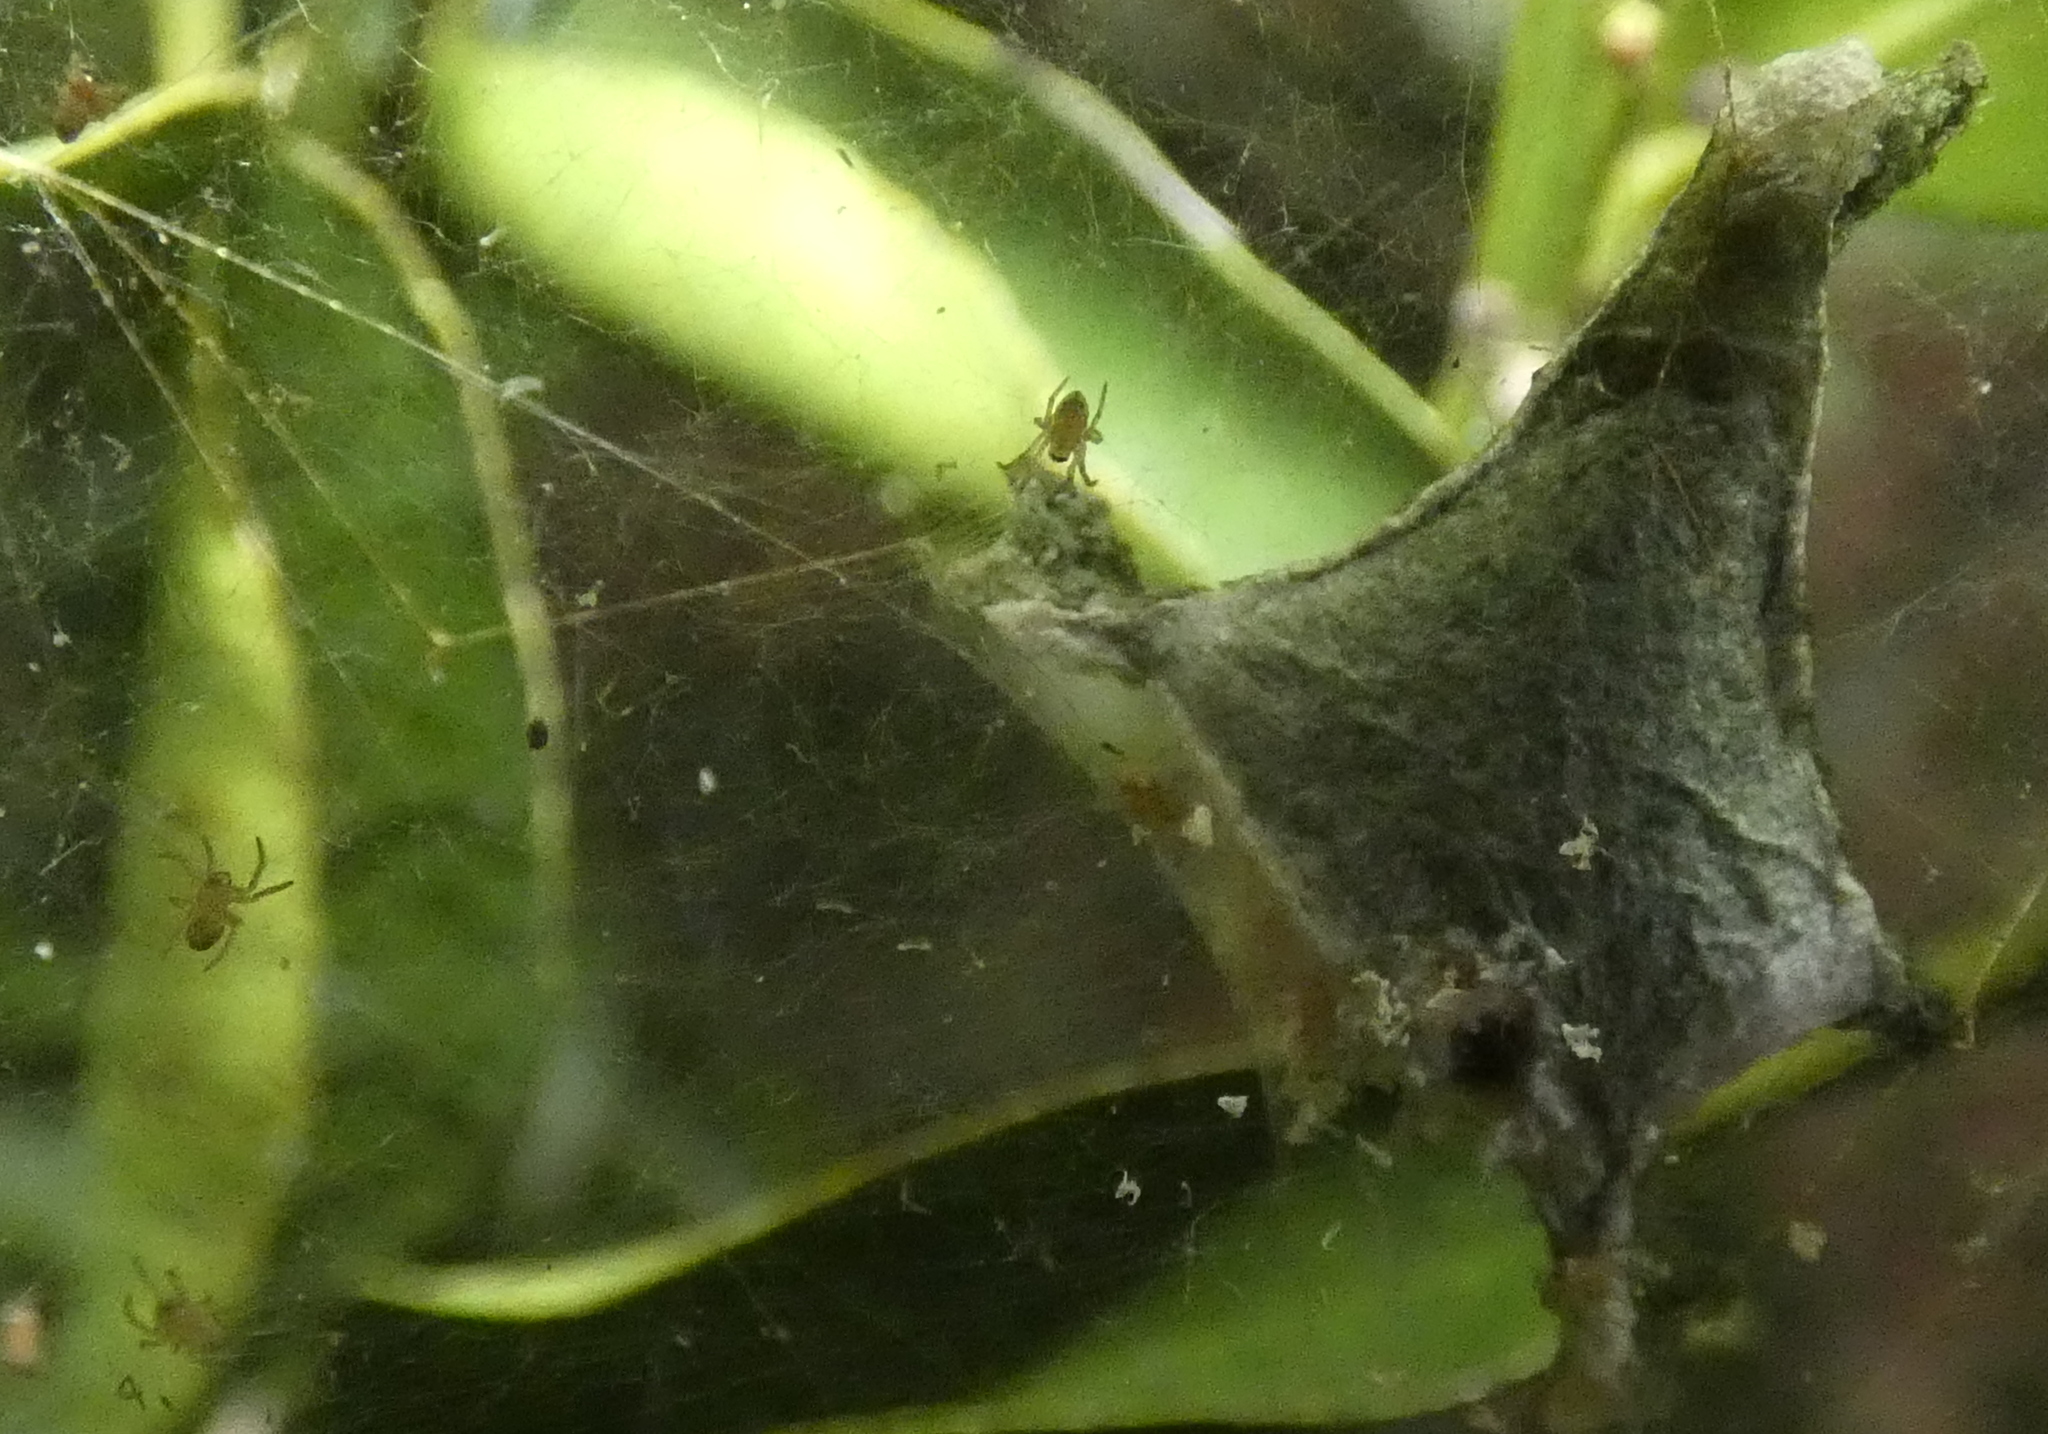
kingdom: Animalia
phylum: Arthropoda
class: Arachnida
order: Araneae
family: Araneidae
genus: Argiope
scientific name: Argiope argentata
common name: Orb weavers
